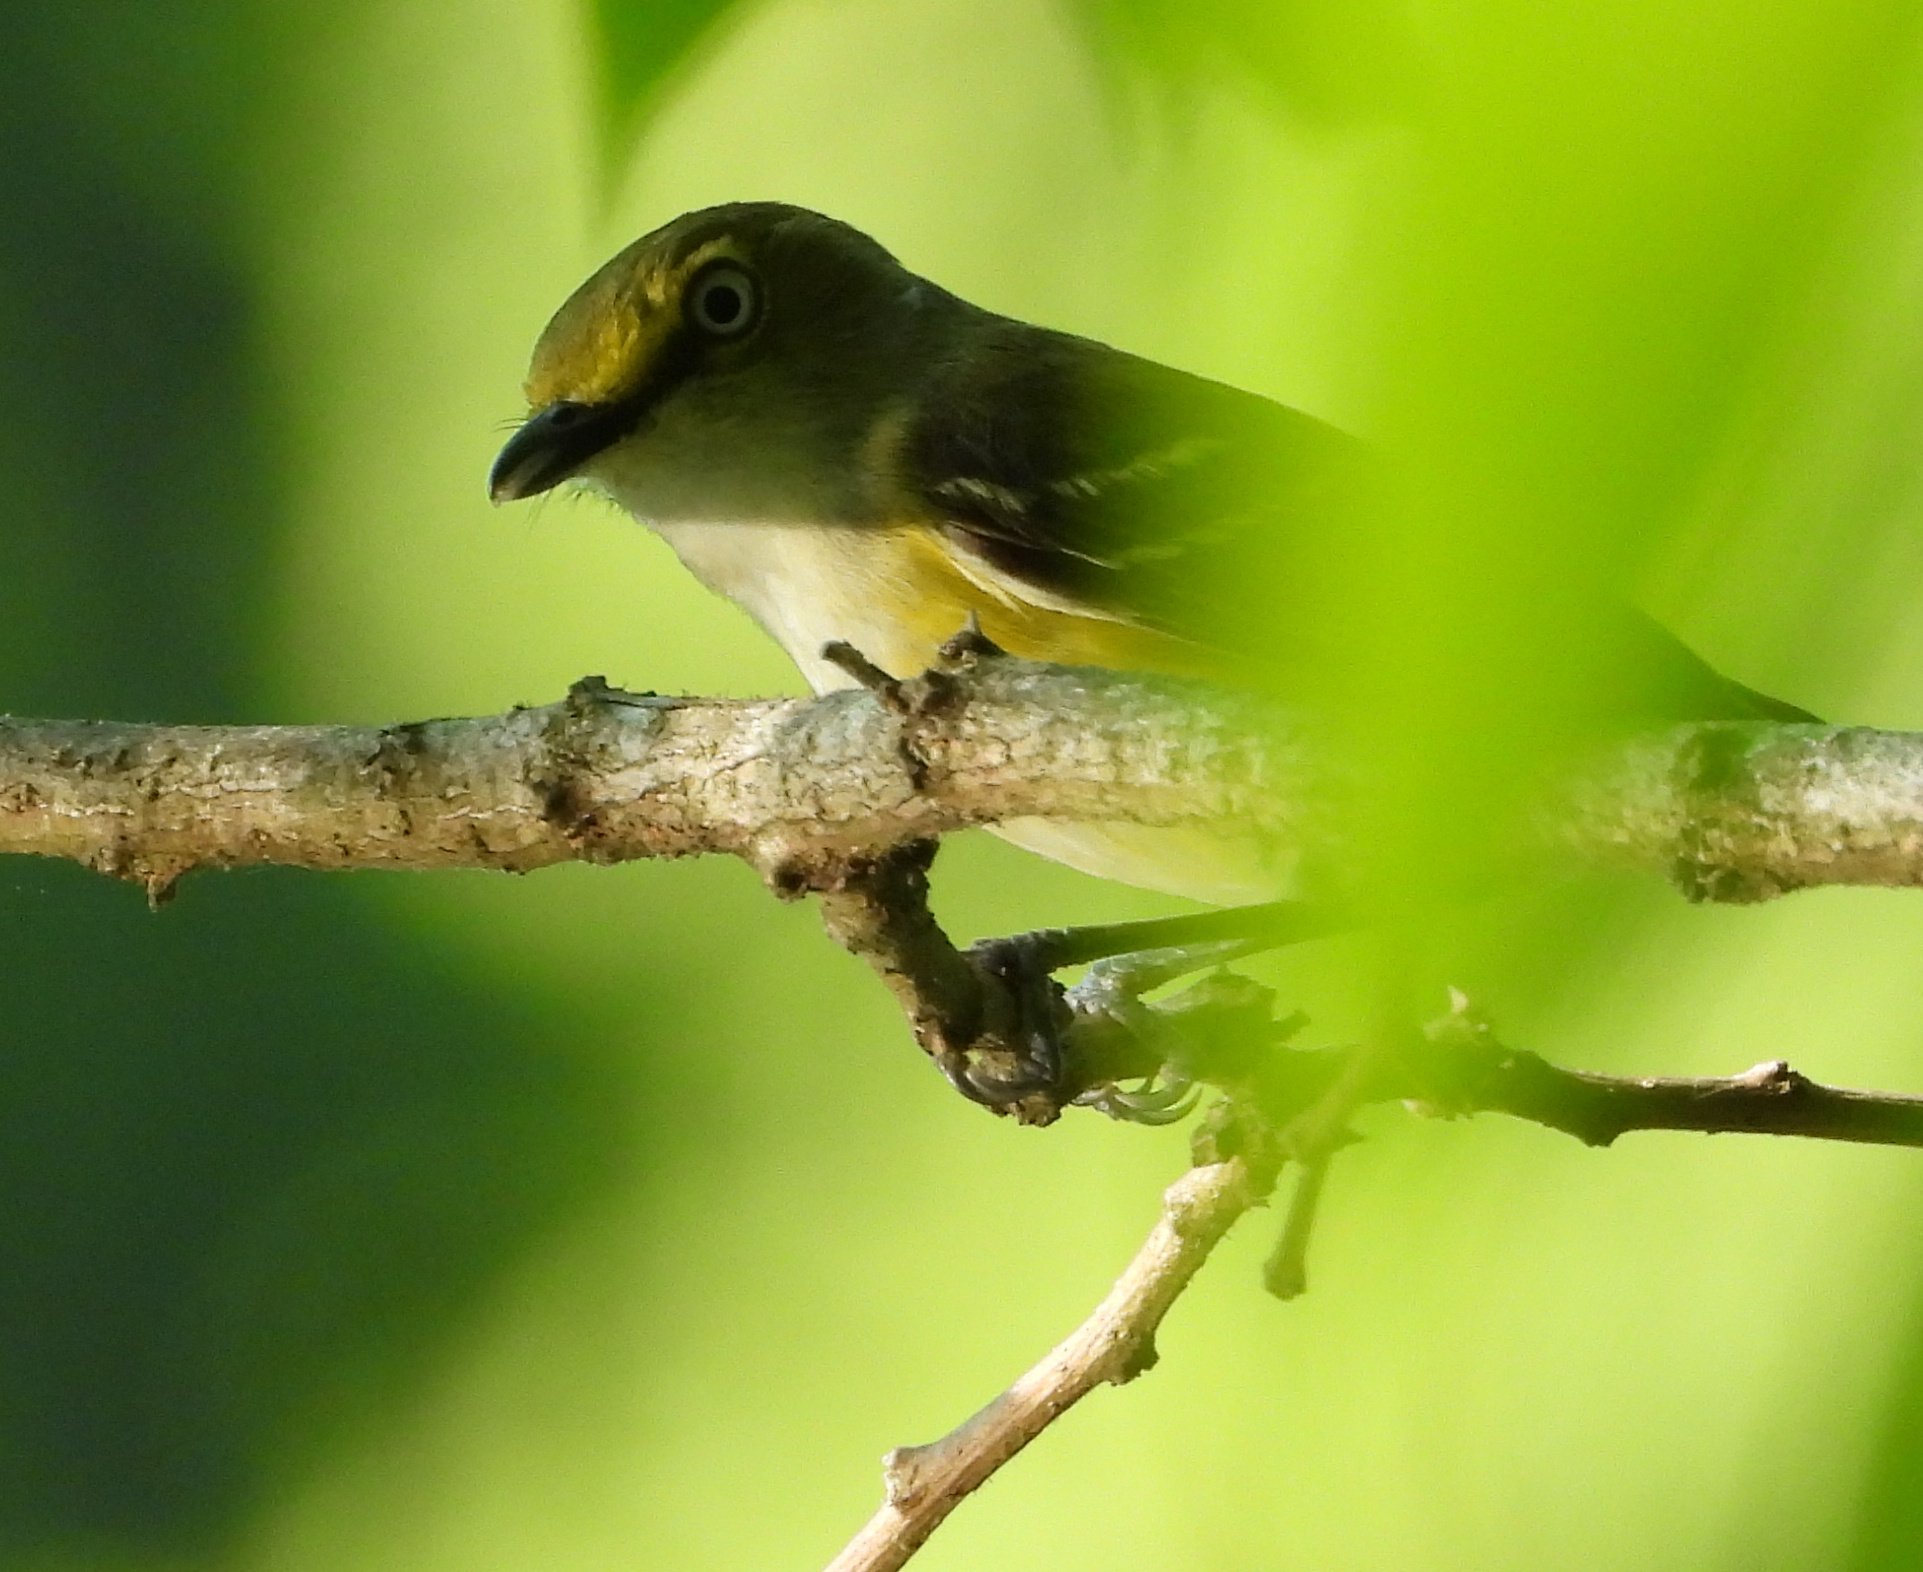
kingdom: Animalia
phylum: Chordata
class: Aves
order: Passeriformes
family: Vireonidae
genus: Vireo
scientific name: Vireo griseus
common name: White-eyed vireo
